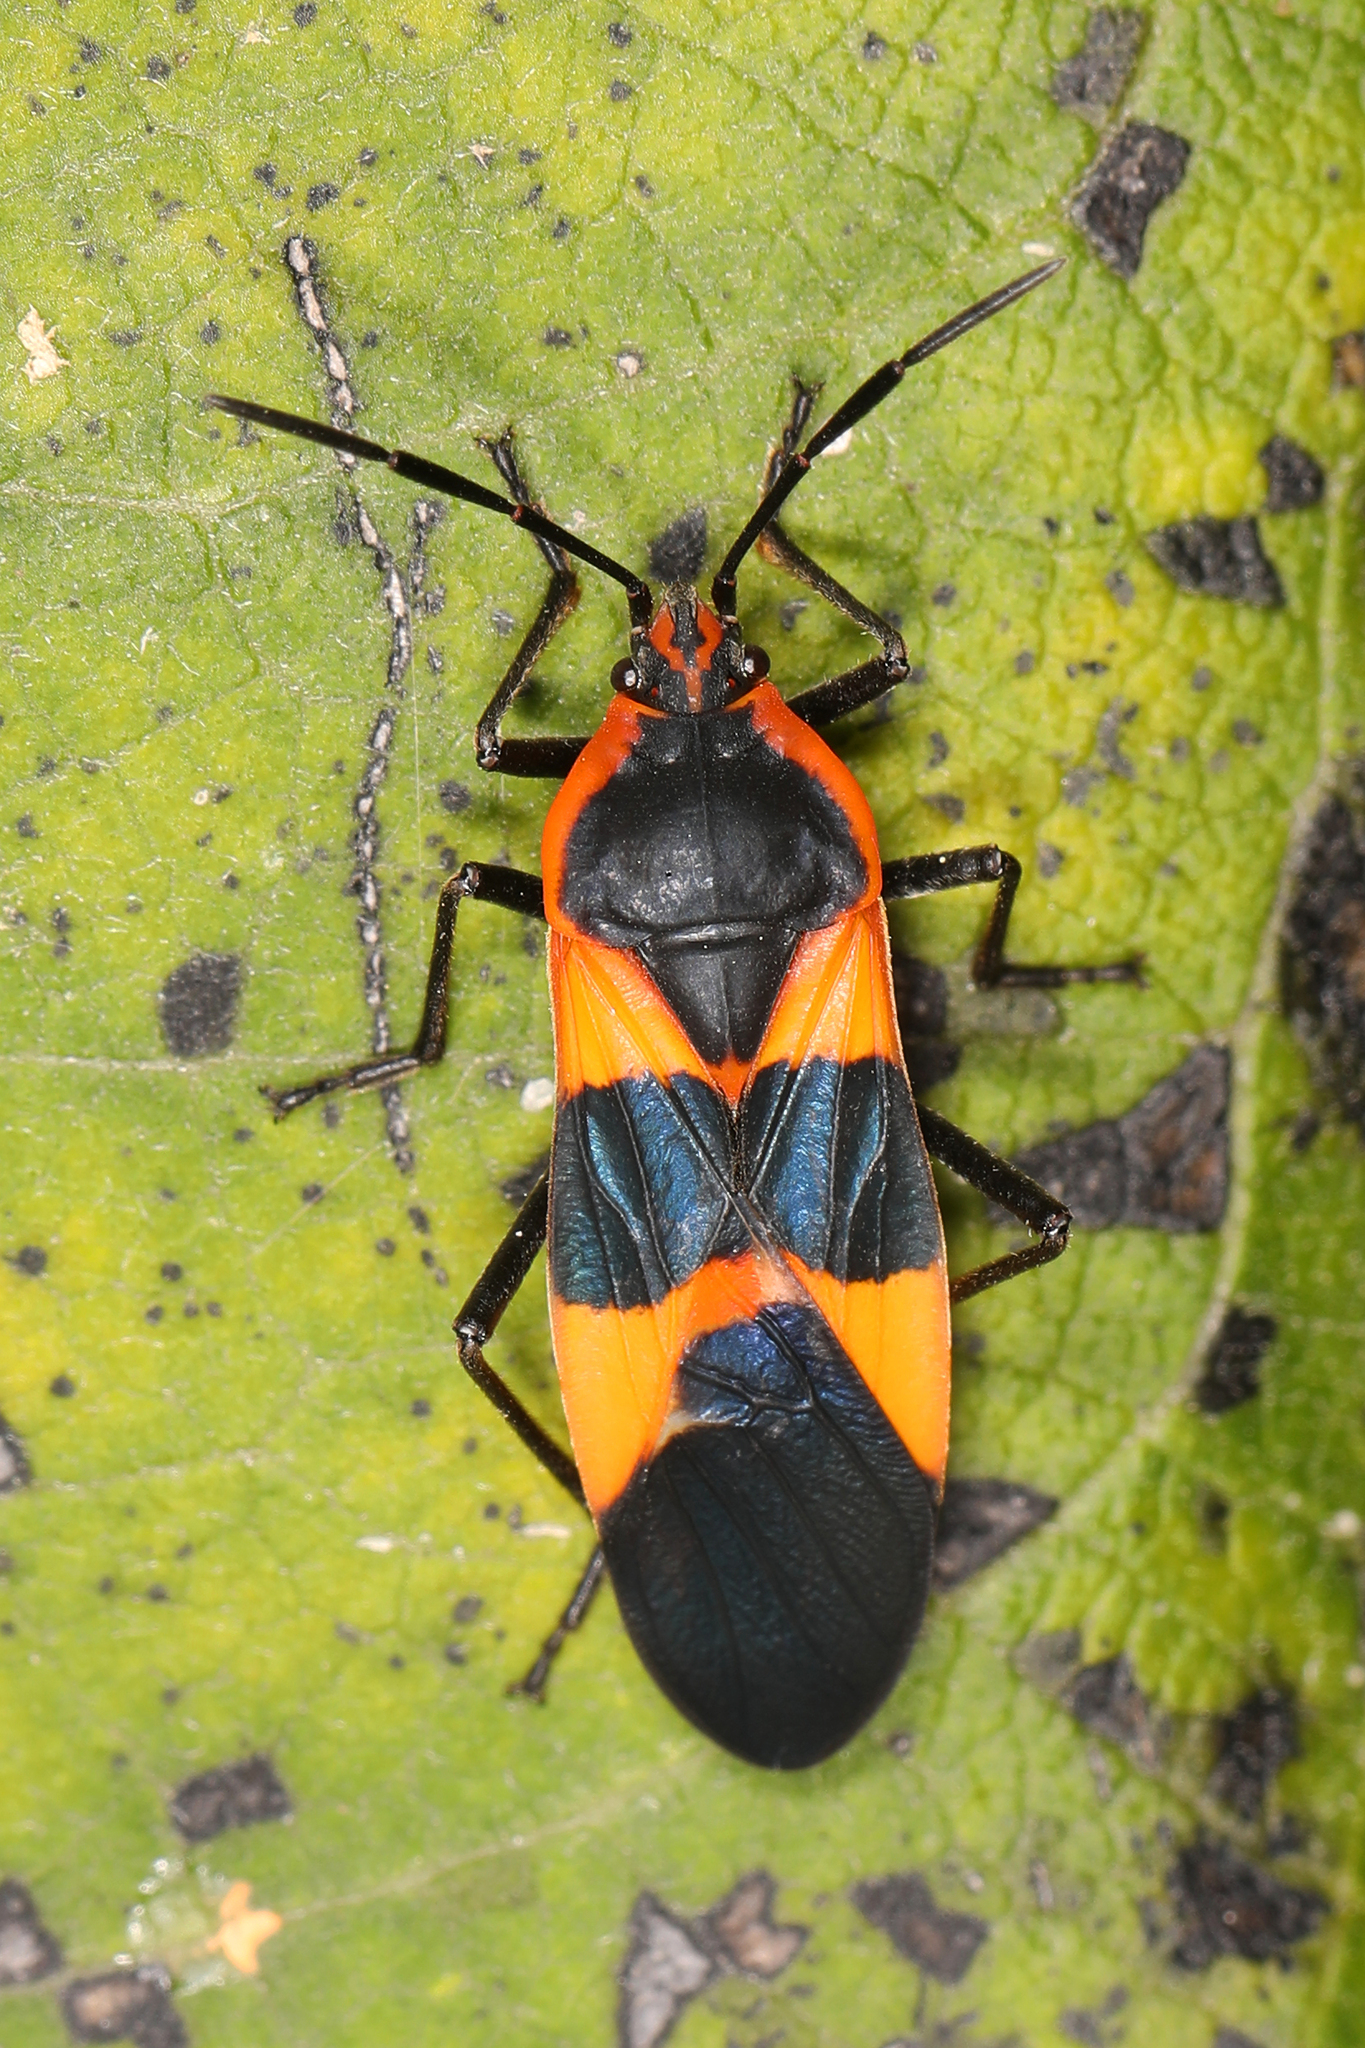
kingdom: Animalia
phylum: Arthropoda
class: Insecta
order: Hemiptera
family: Lygaeidae
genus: Oncopeltus
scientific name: Oncopeltus fasciatus
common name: Large milkweed bug
